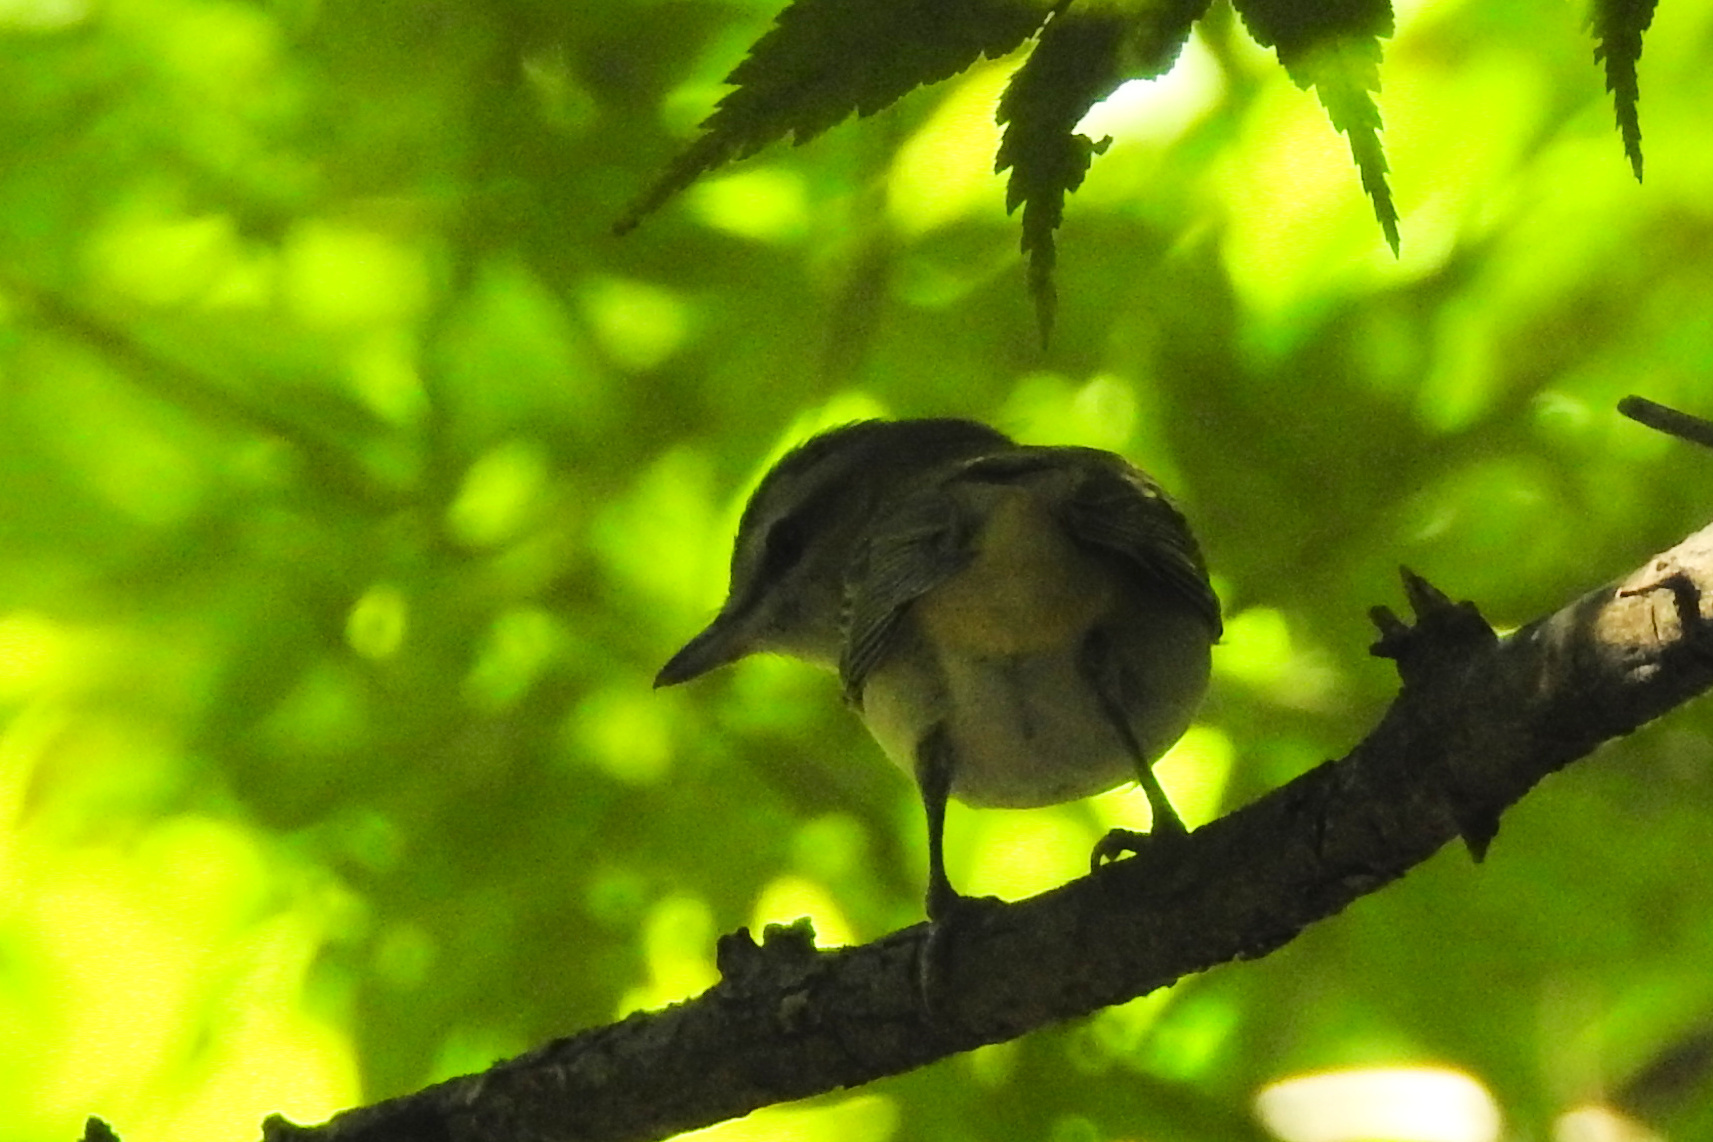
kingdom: Animalia
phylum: Chordata
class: Aves
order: Passeriformes
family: Vireonidae
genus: Vireo
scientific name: Vireo olivaceus
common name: Red-eyed vireo
